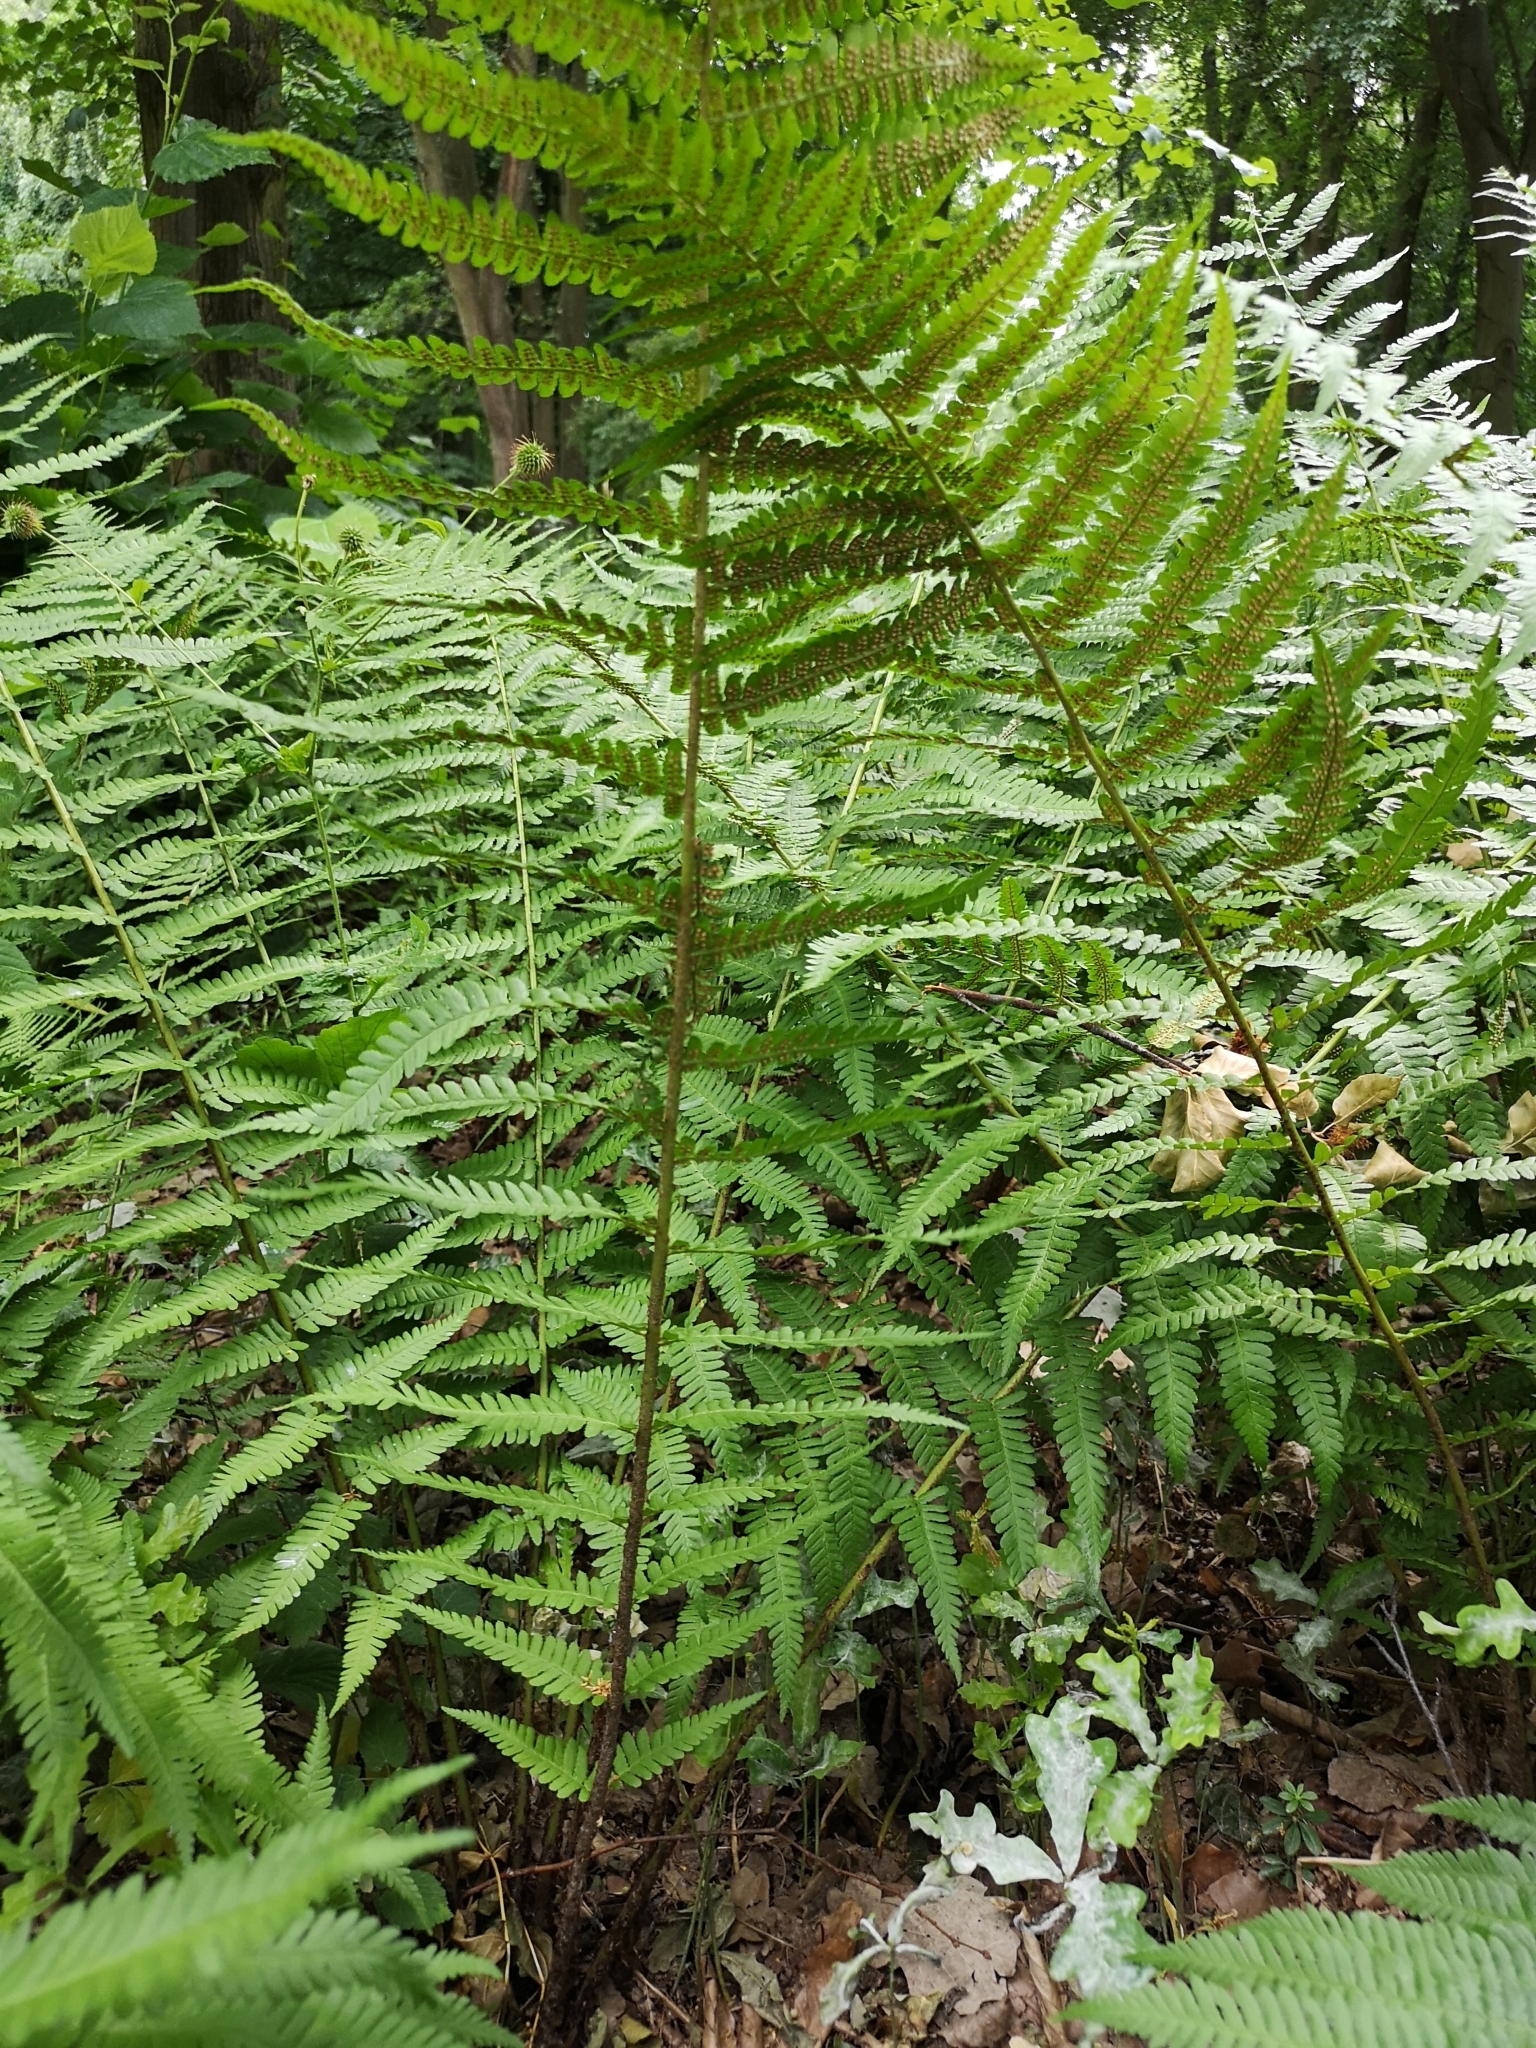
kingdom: Plantae
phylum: Tracheophyta
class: Polypodiopsida
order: Polypodiales
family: Dryopteridaceae
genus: Dryopteris
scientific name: Dryopteris filix-mas
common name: Male fern
